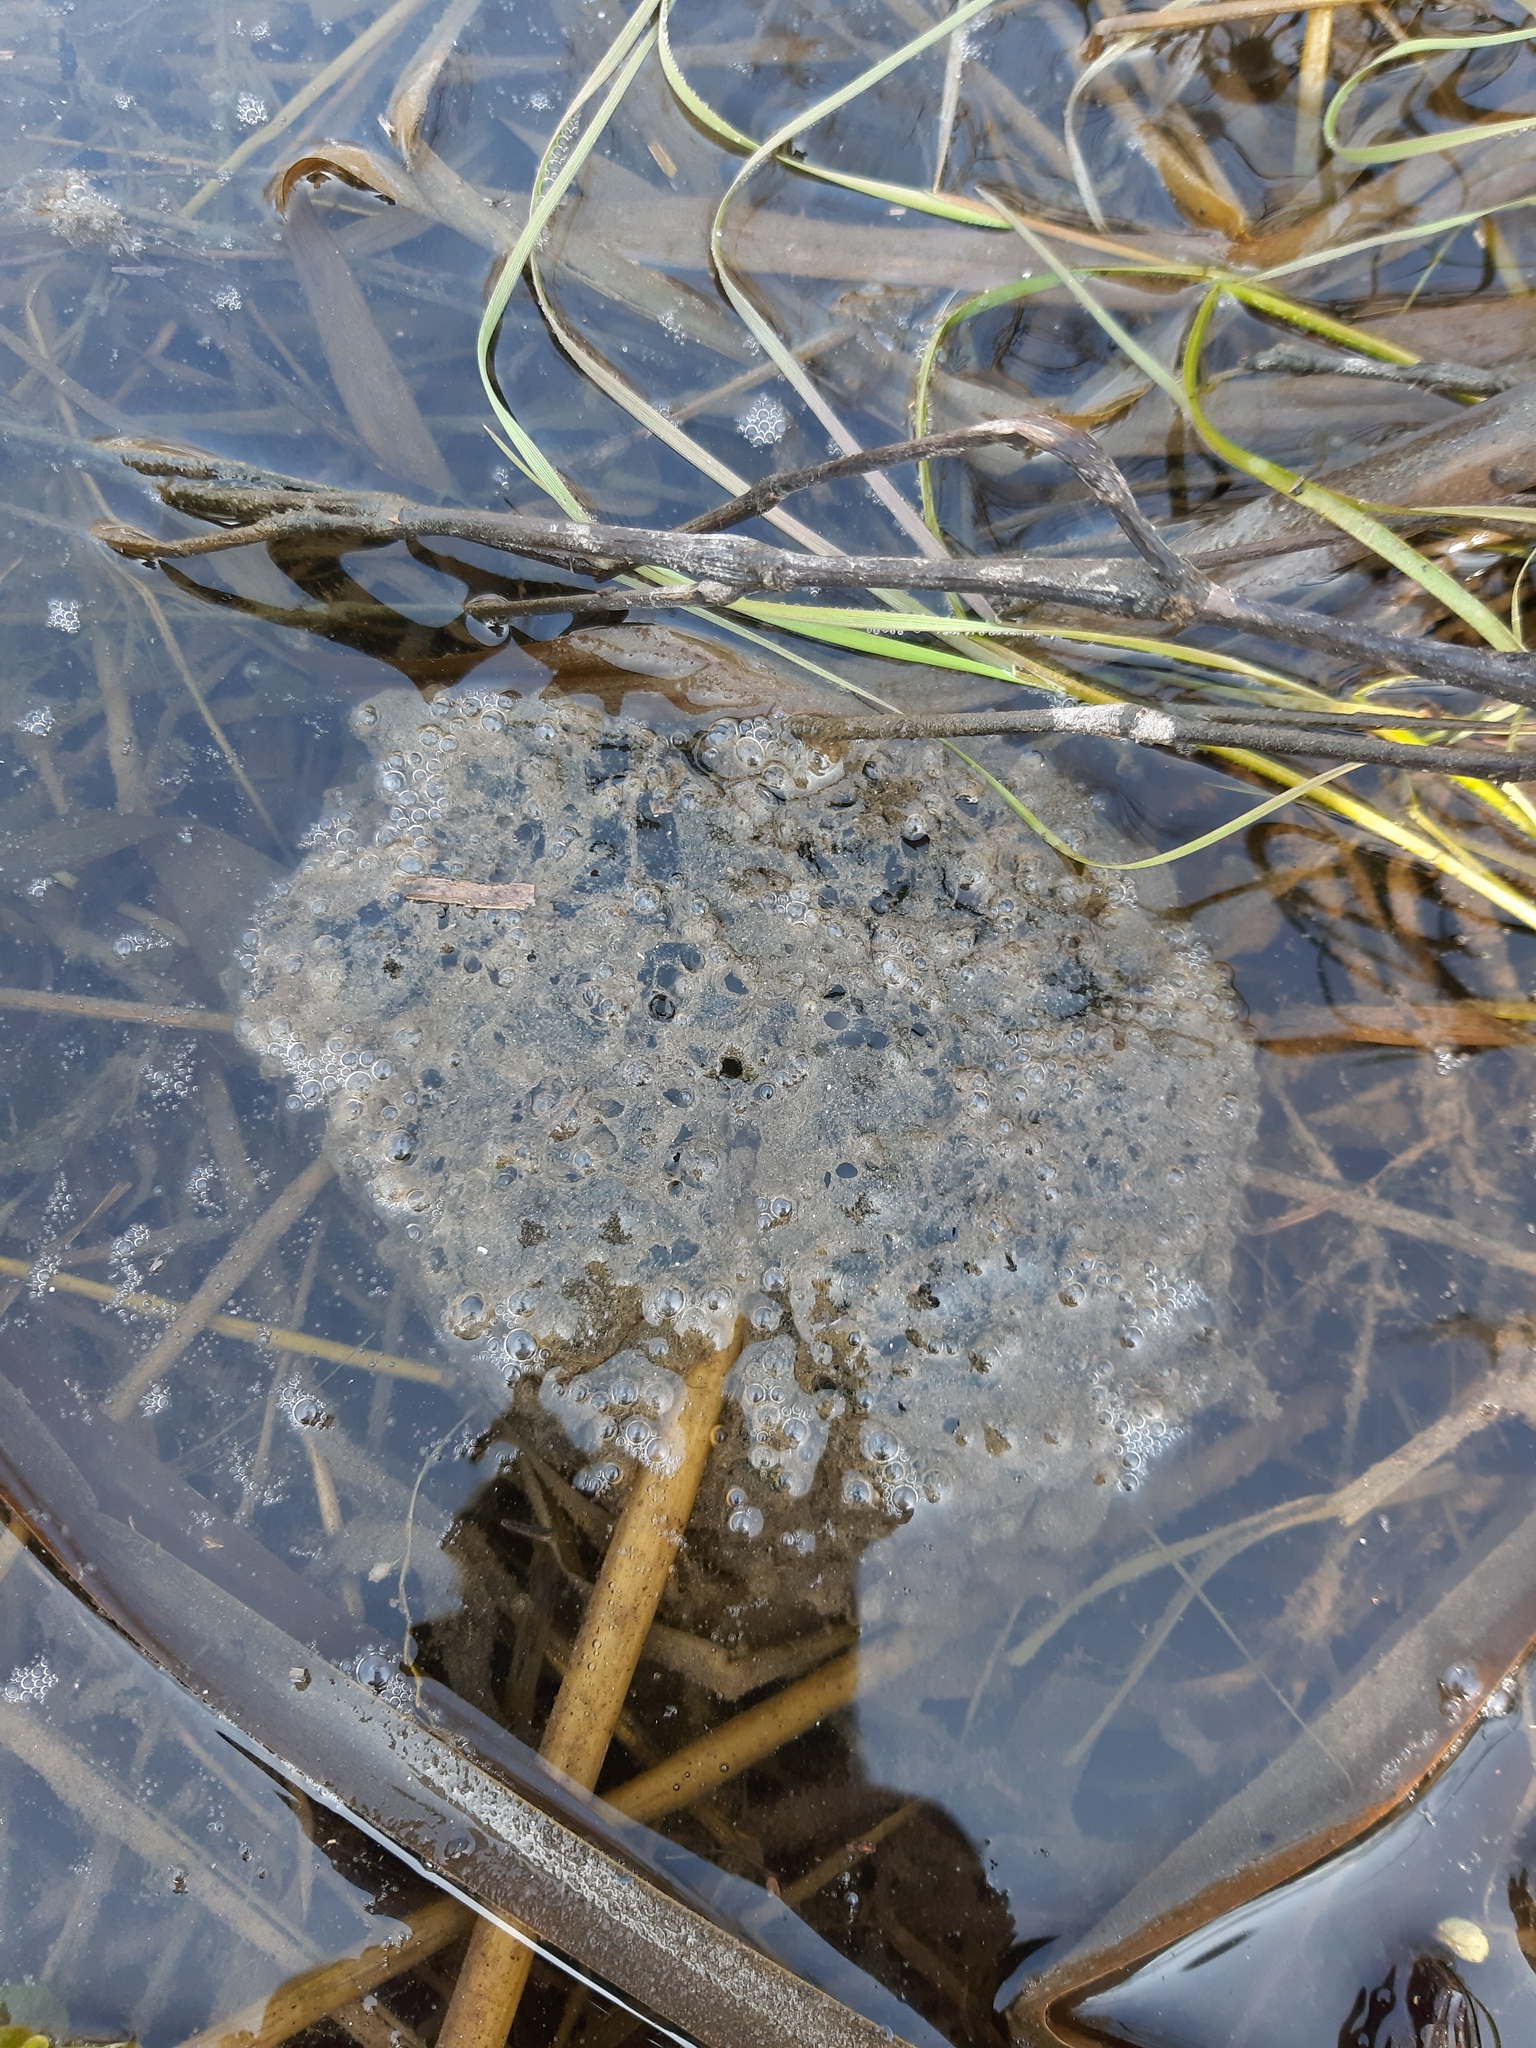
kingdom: Animalia
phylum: Chordata
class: Amphibia
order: Anura
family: Ranidae
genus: Rana
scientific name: Rana dalmatina
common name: Agile frog
